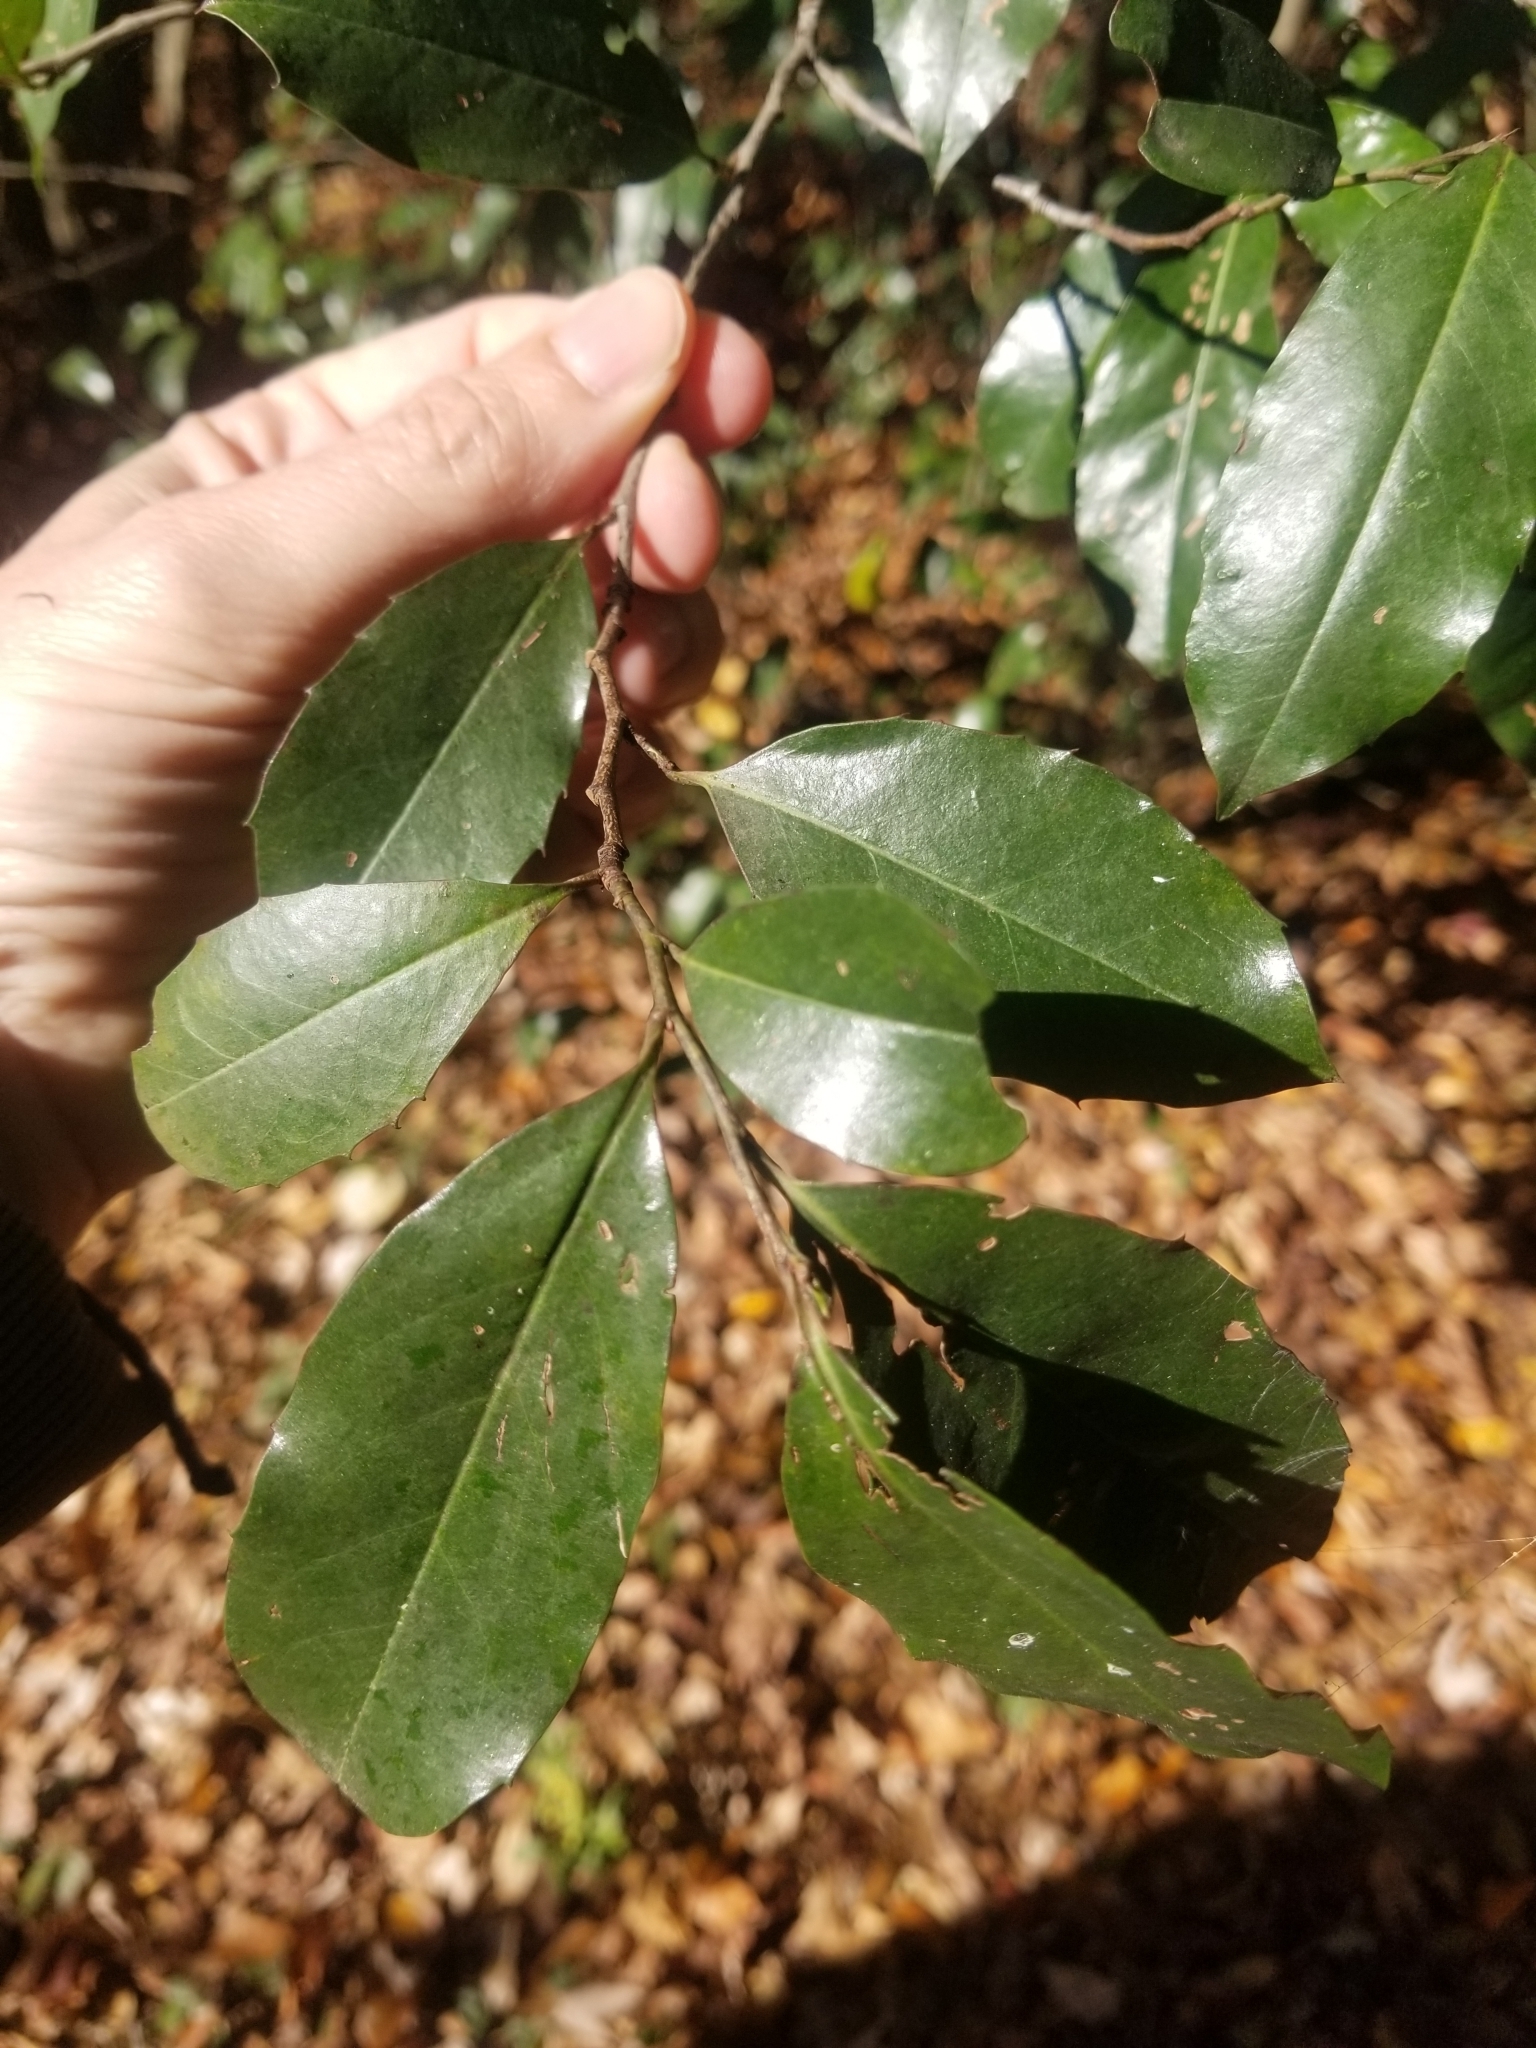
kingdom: Plantae
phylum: Tracheophyta
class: Magnoliopsida
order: Rosales
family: Rosaceae
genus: Prunus
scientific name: Prunus caroliniana
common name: Carolina laurel cherry
